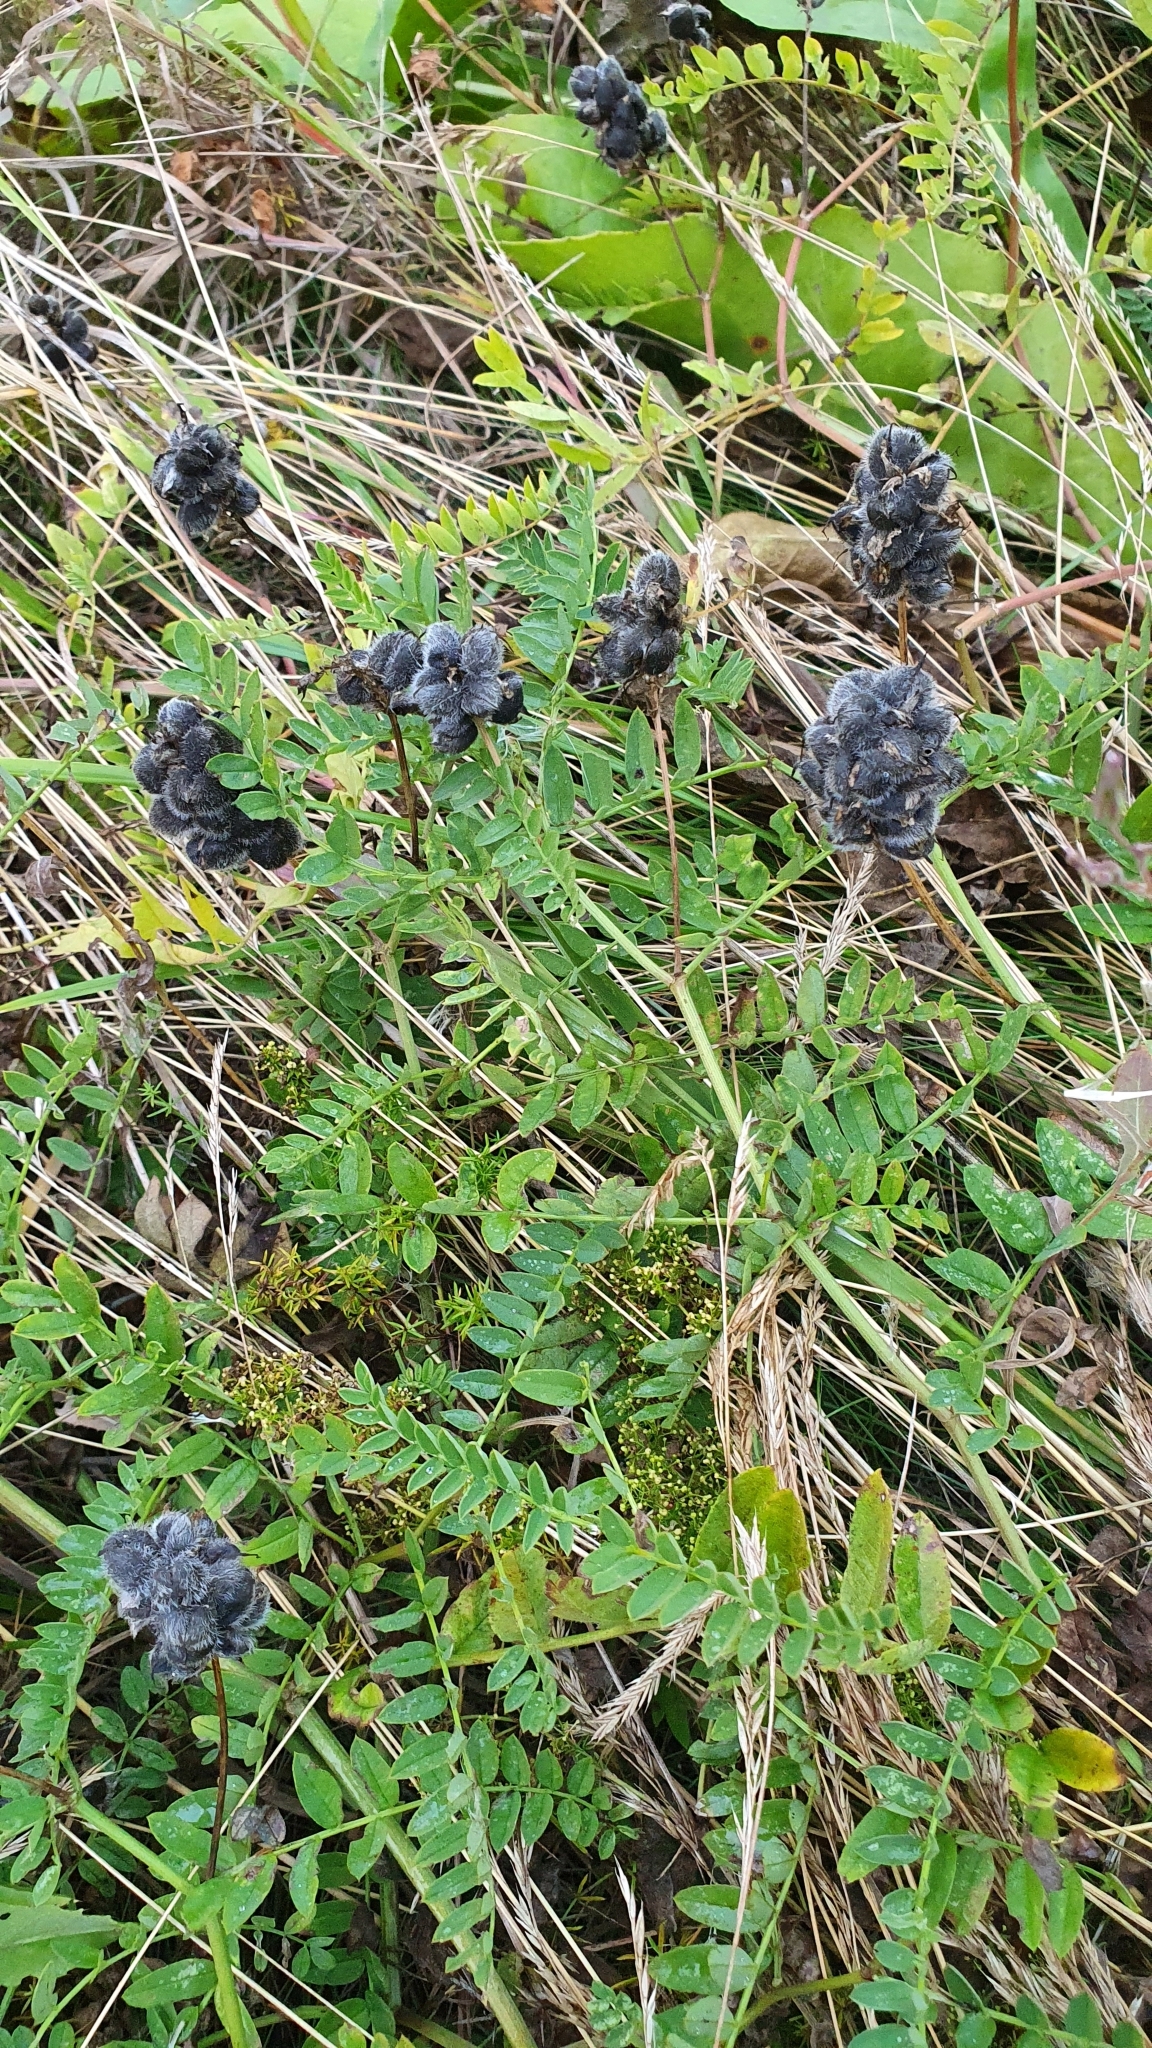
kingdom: Plantae
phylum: Tracheophyta
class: Magnoliopsida
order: Fabales
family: Fabaceae
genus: Astragalus
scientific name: Astragalus cicer
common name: Chick-pea milk-vetch
